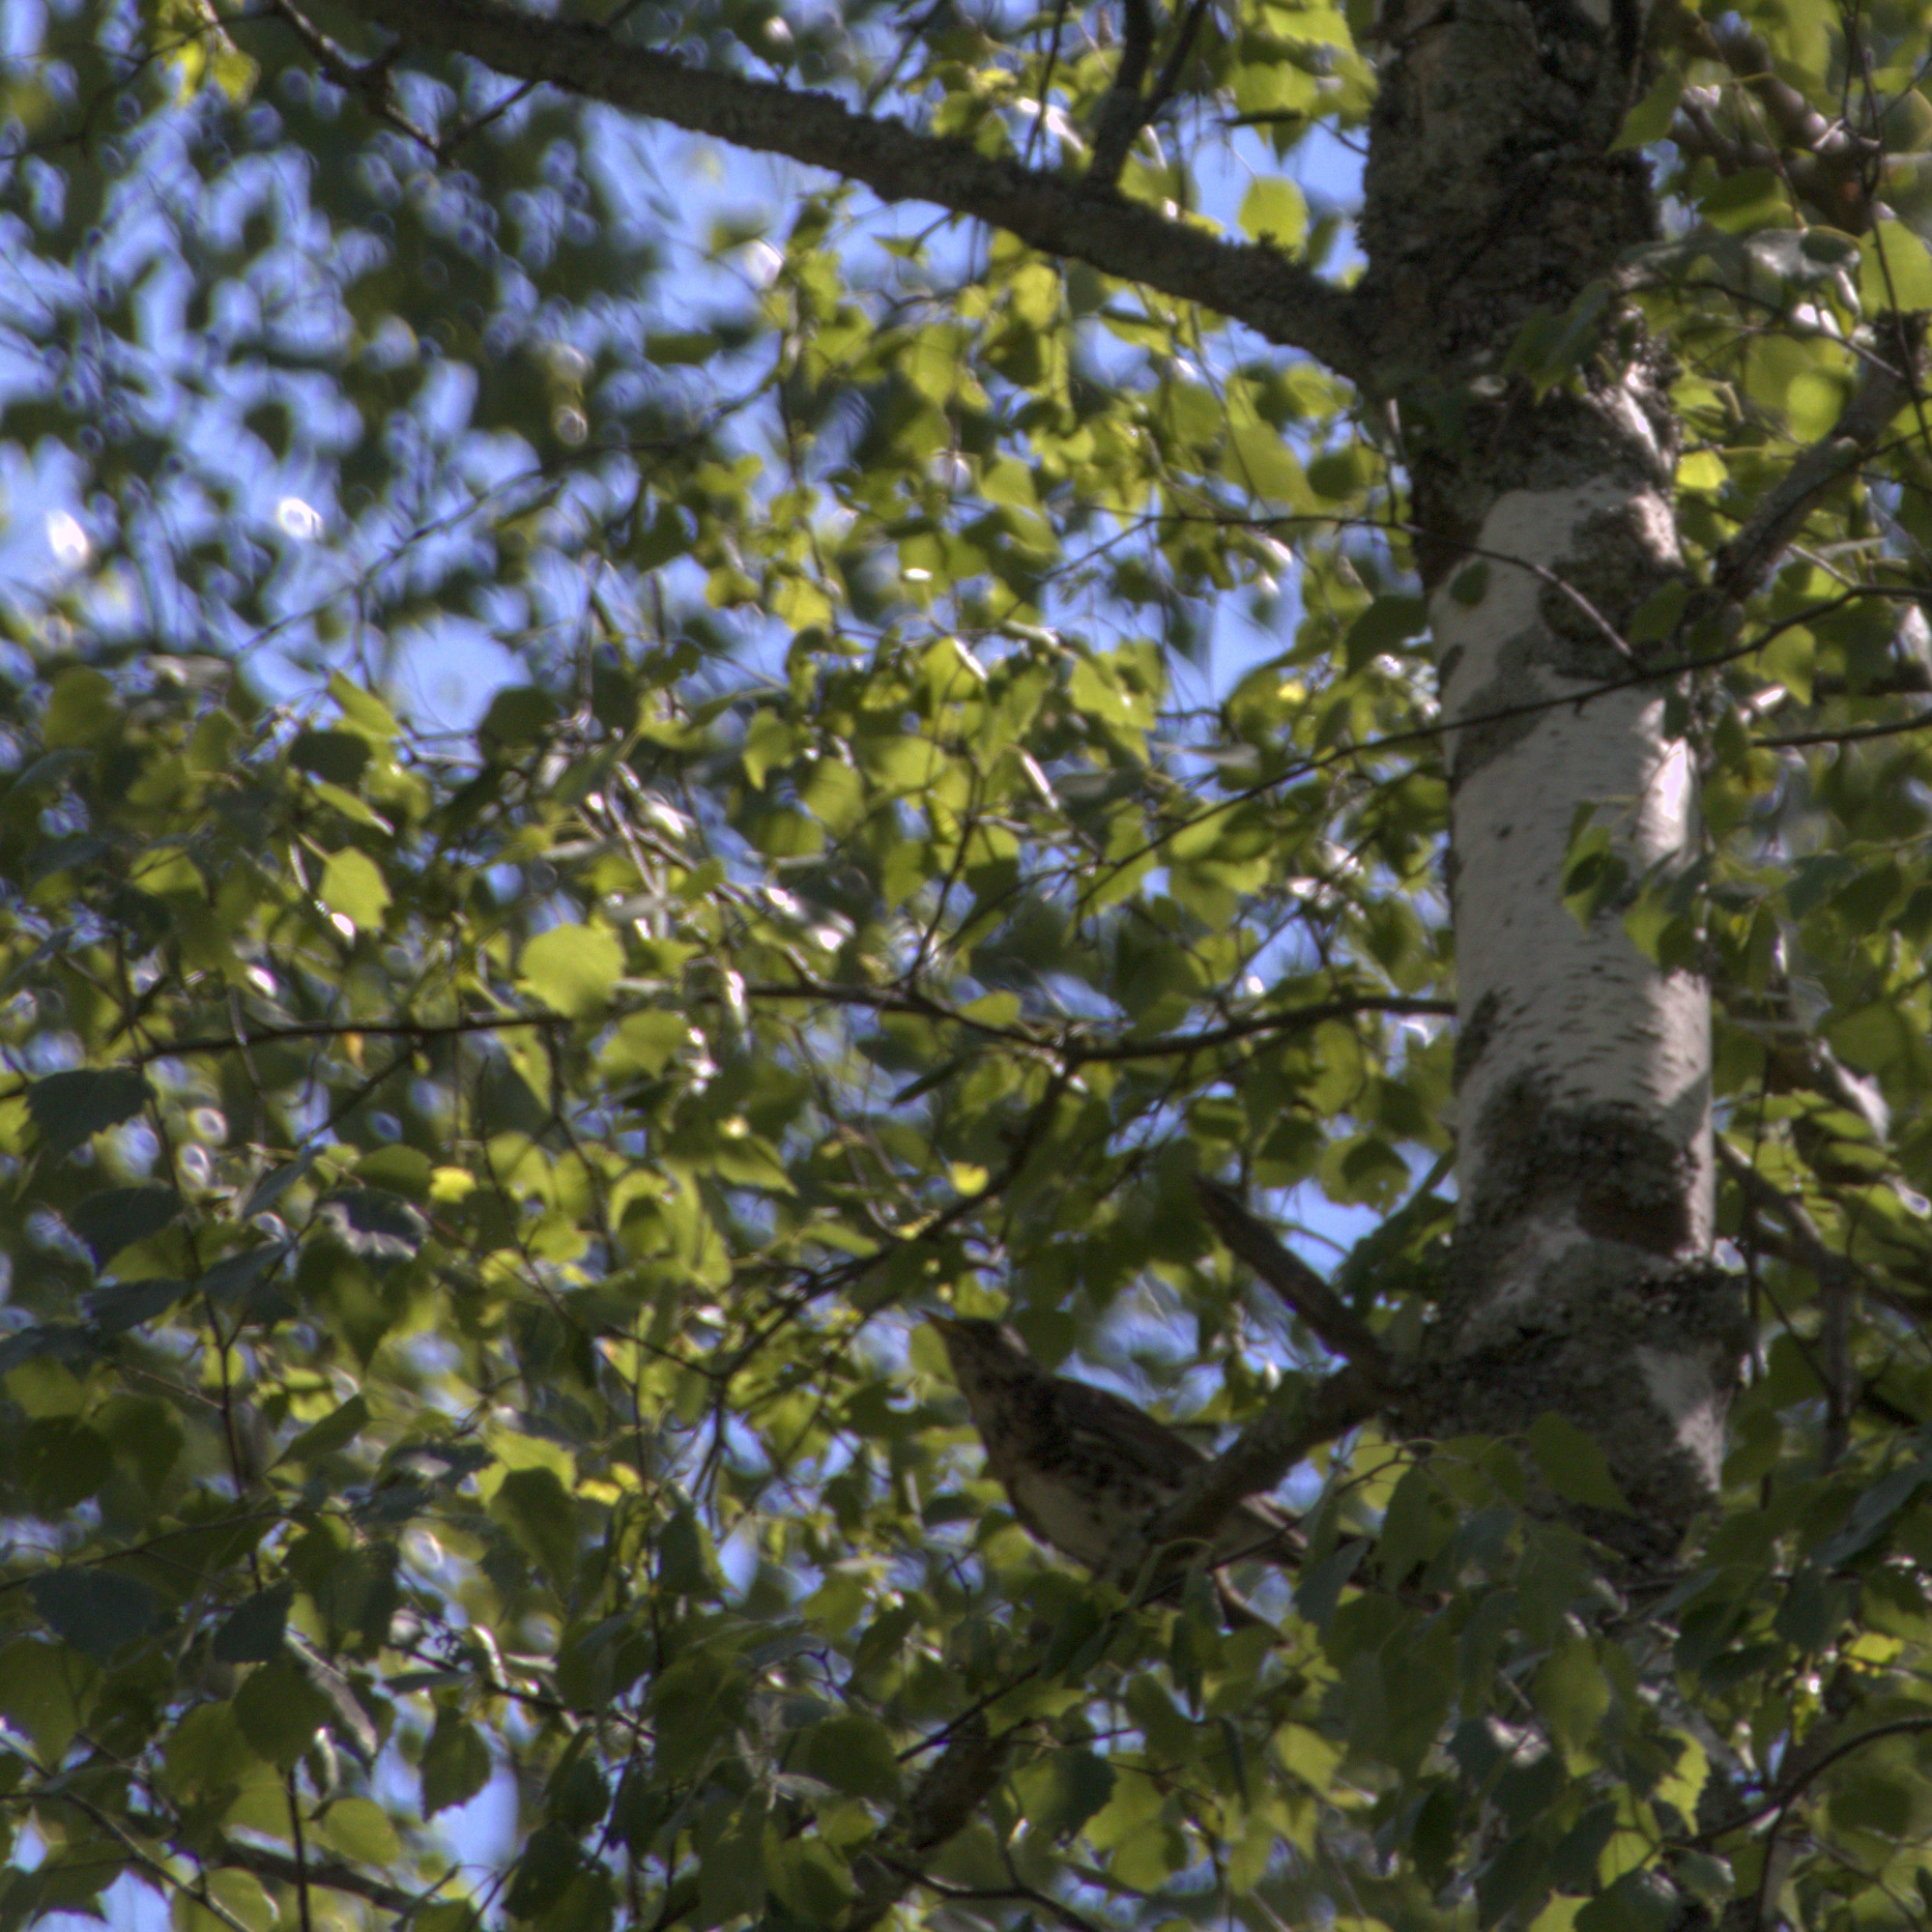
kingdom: Animalia
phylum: Chordata
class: Aves
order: Passeriformes
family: Turdidae
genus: Turdus
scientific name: Turdus pilaris
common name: Fieldfare
